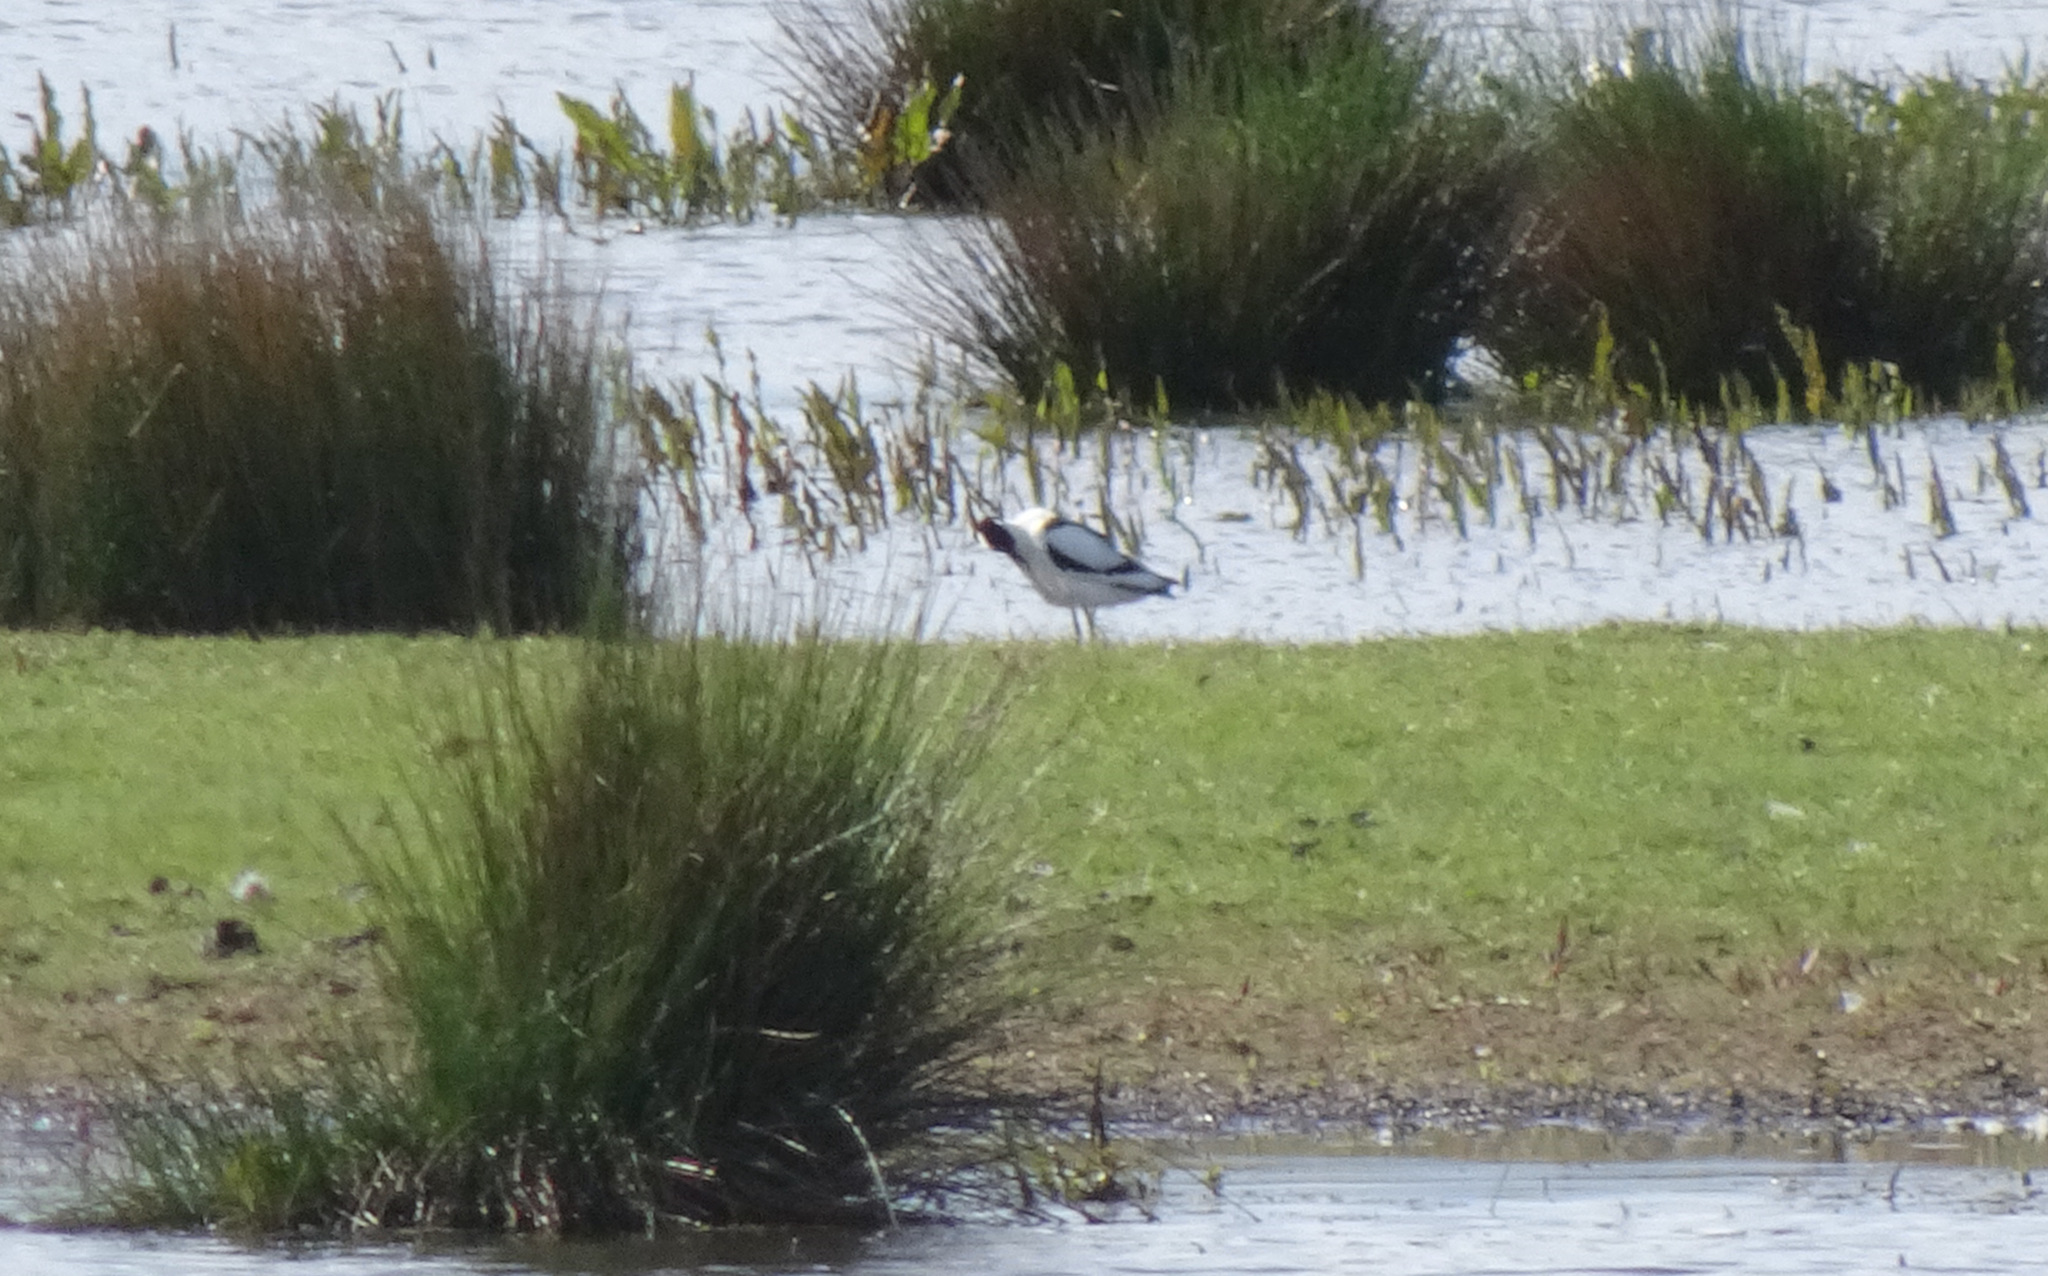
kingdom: Animalia
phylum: Chordata
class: Aves
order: Charadriiformes
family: Recurvirostridae
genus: Recurvirostra
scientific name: Recurvirostra avosetta
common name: Pied avocet
